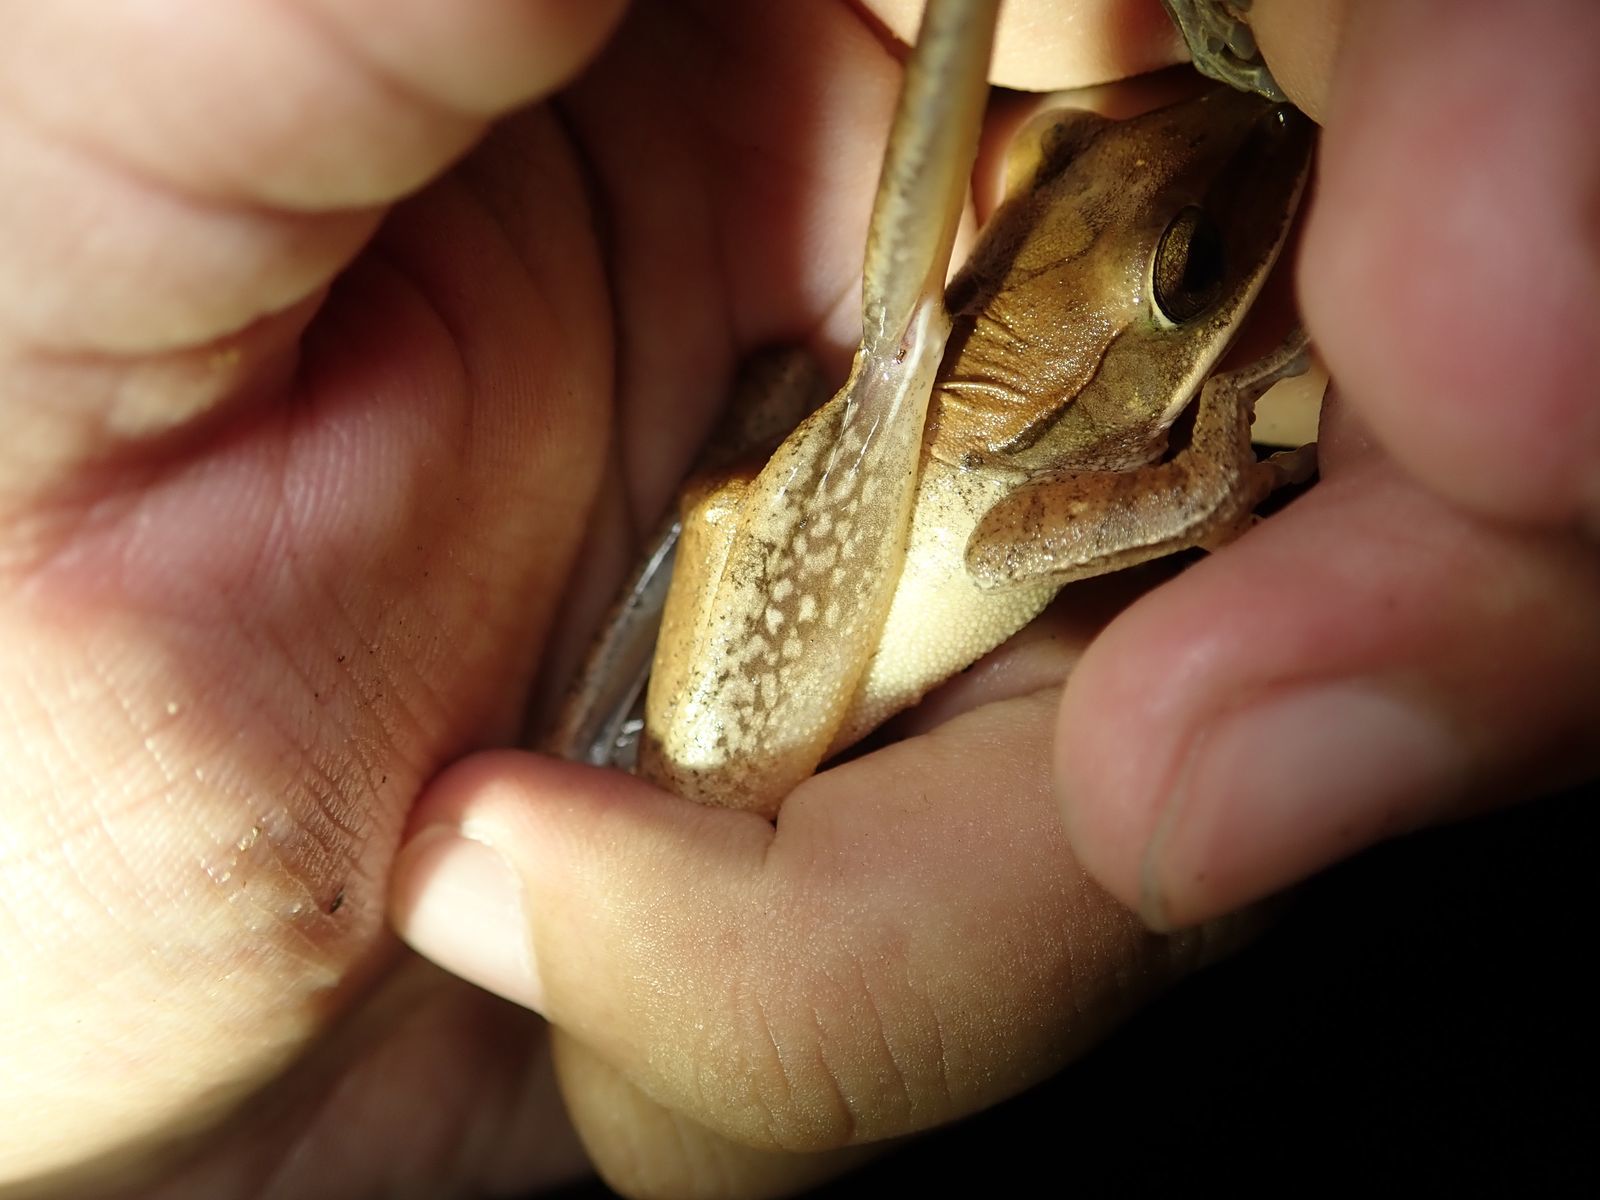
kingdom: Animalia
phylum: Chordata
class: Amphibia
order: Anura
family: Rhacophoridae
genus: Polypedates
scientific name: Polypedates megacephalus
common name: Hong kong whipping frog
